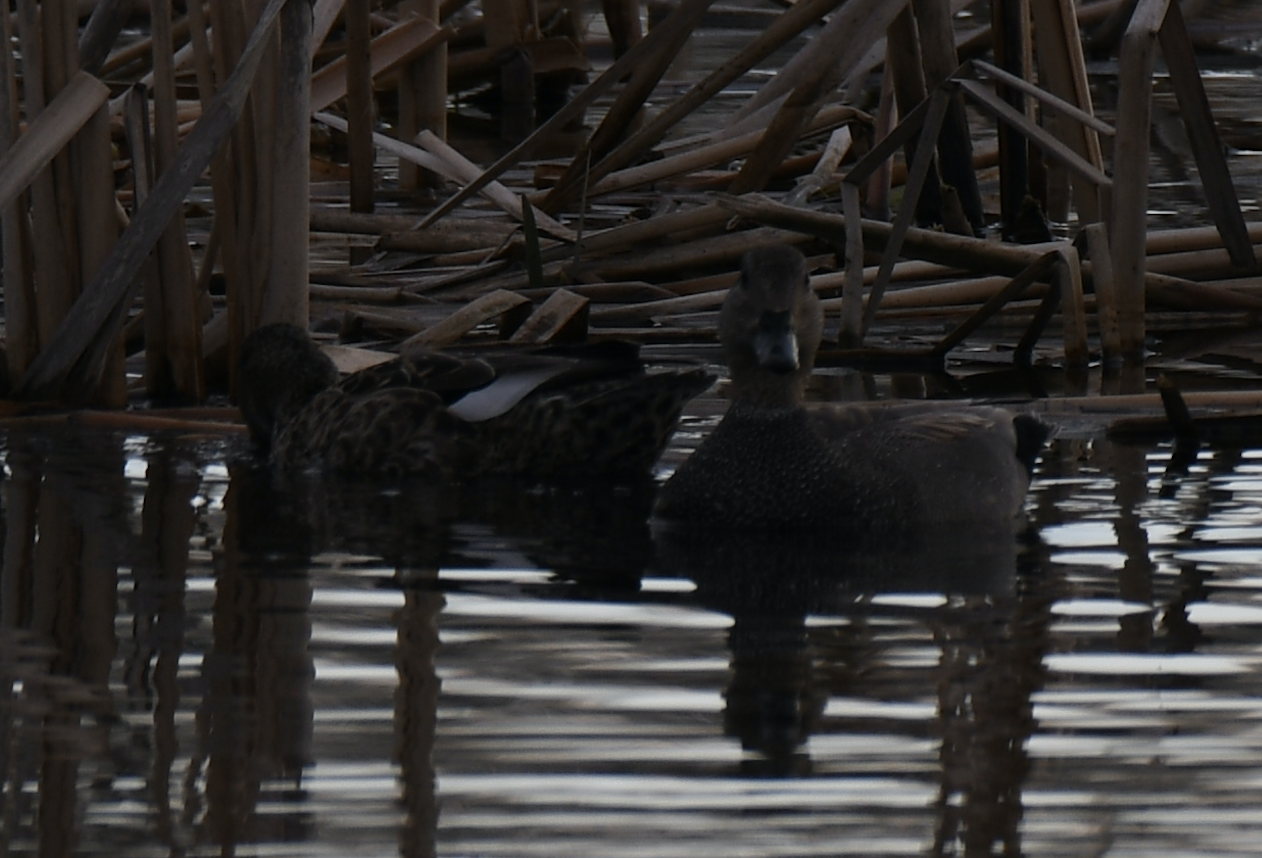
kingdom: Animalia
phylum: Chordata
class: Aves
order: Anseriformes
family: Anatidae
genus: Mareca
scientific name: Mareca strepera
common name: Gadwall
